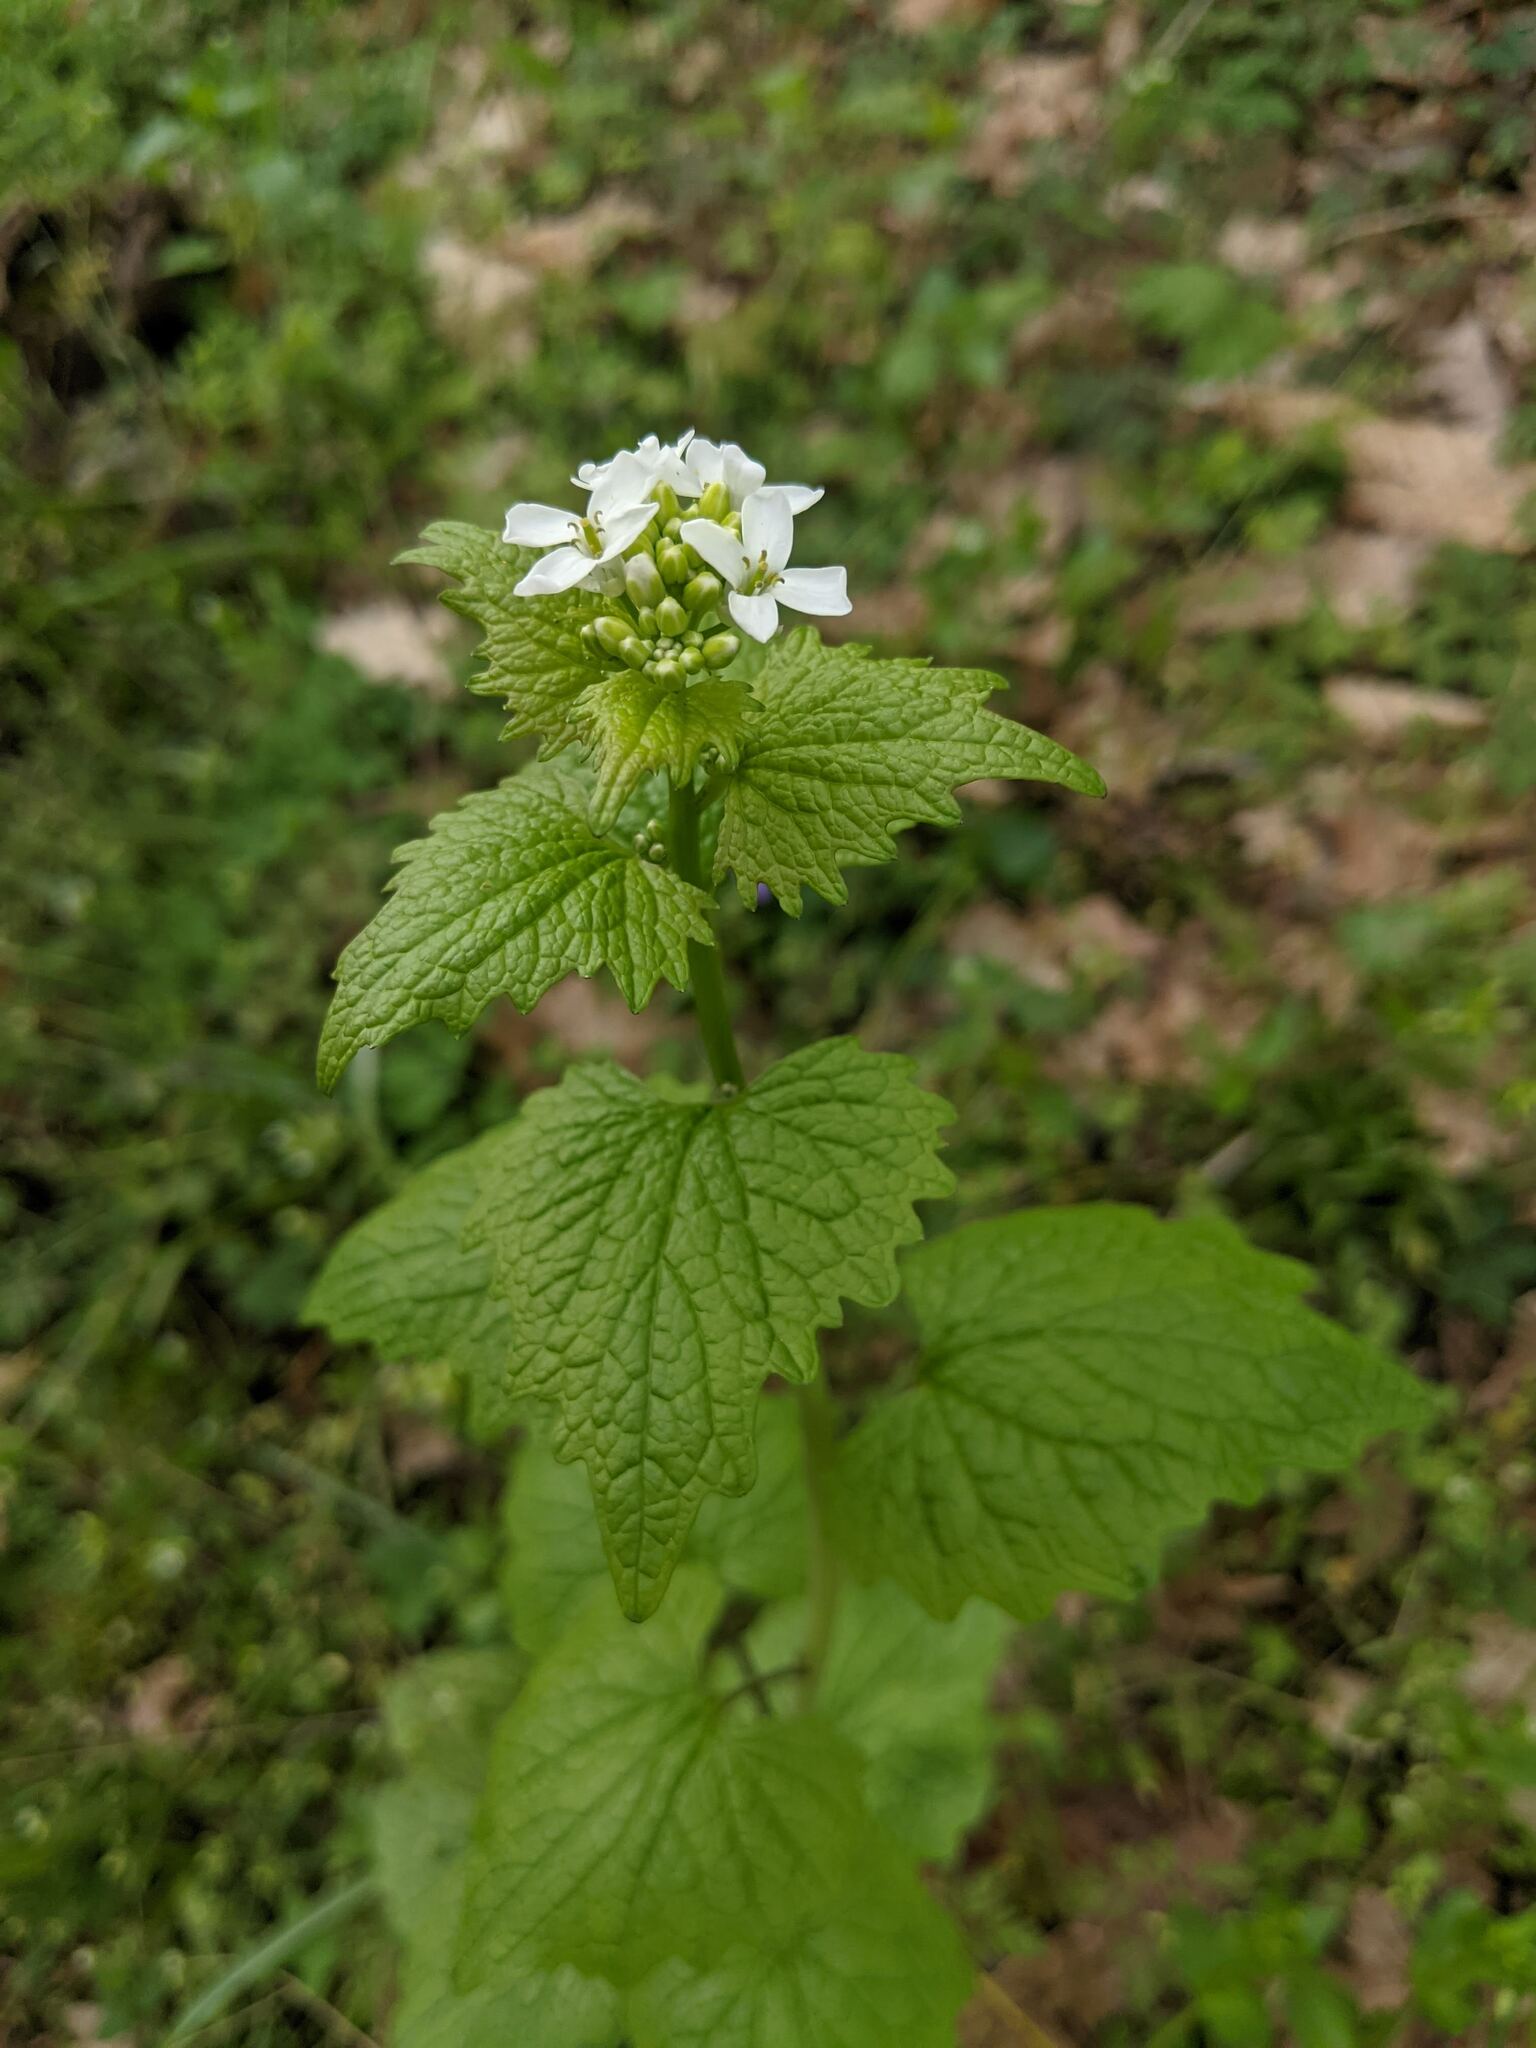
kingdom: Plantae
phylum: Tracheophyta
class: Magnoliopsida
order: Brassicales
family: Brassicaceae
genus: Alliaria
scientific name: Alliaria petiolata
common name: Garlic mustard
